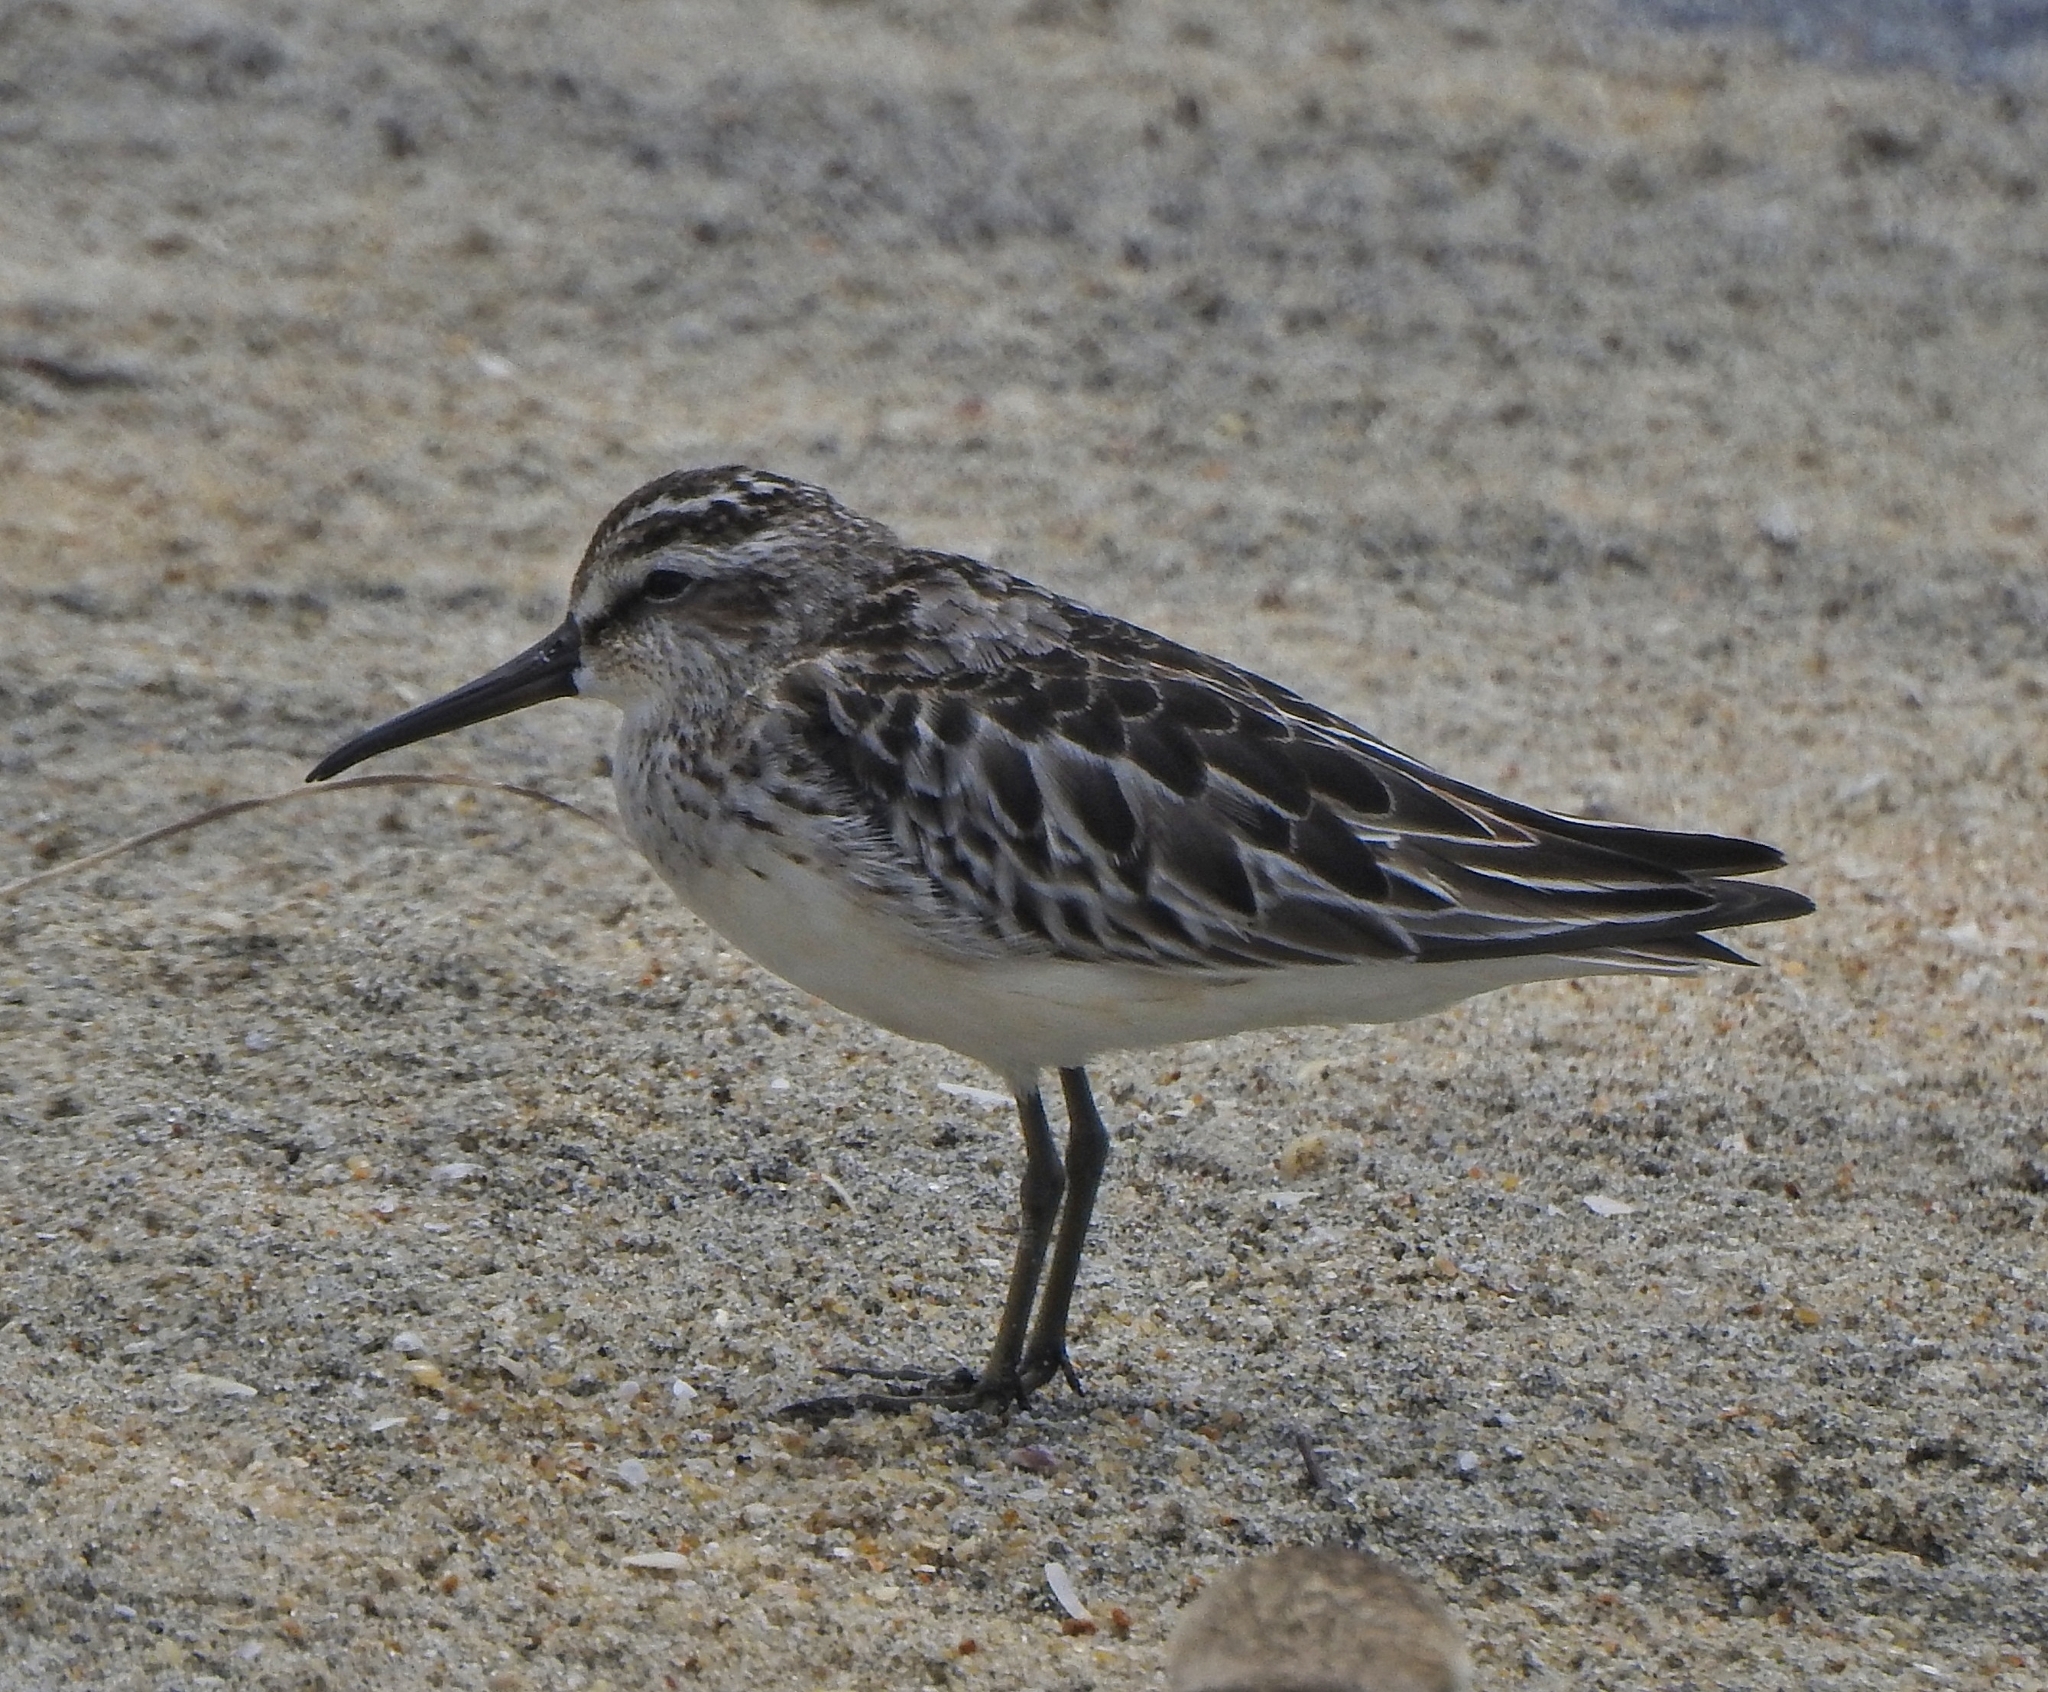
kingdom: Animalia
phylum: Chordata
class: Aves
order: Charadriiformes
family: Scolopacidae
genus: Calidris
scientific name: Calidris falcinellus
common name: Broad-billed sandpiper
